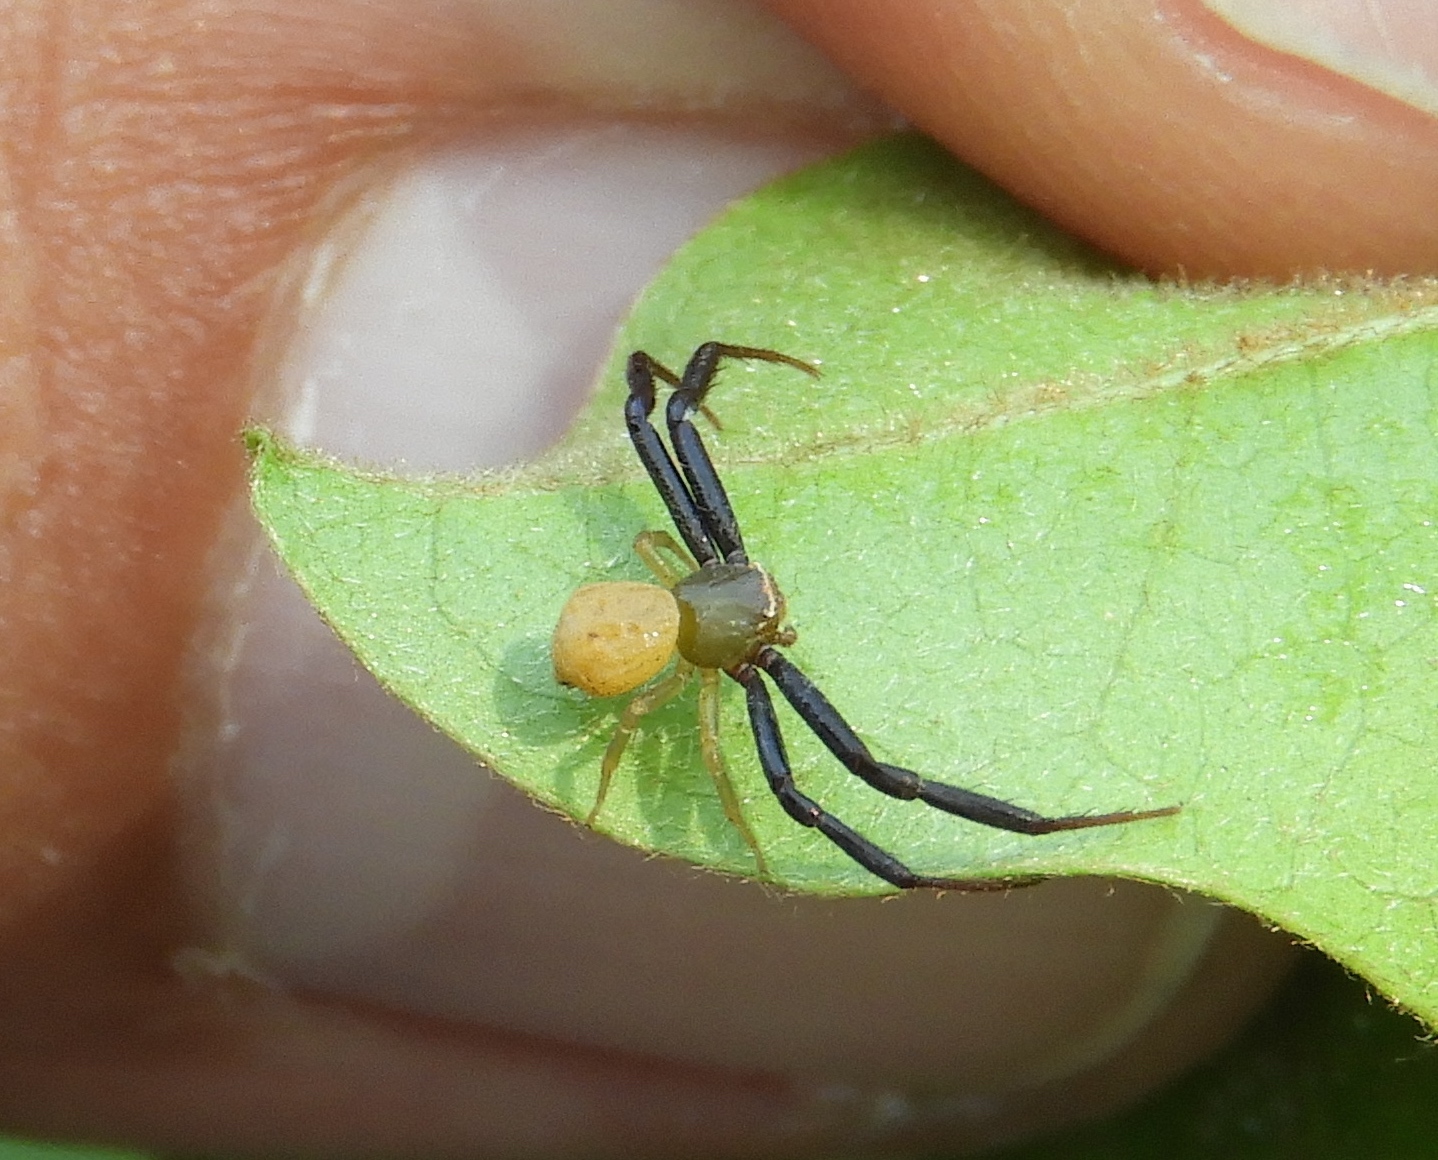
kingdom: Animalia
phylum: Arthropoda
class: Arachnida
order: Araneae
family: Thomisidae
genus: Misumenoides
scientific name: Misumenoides
